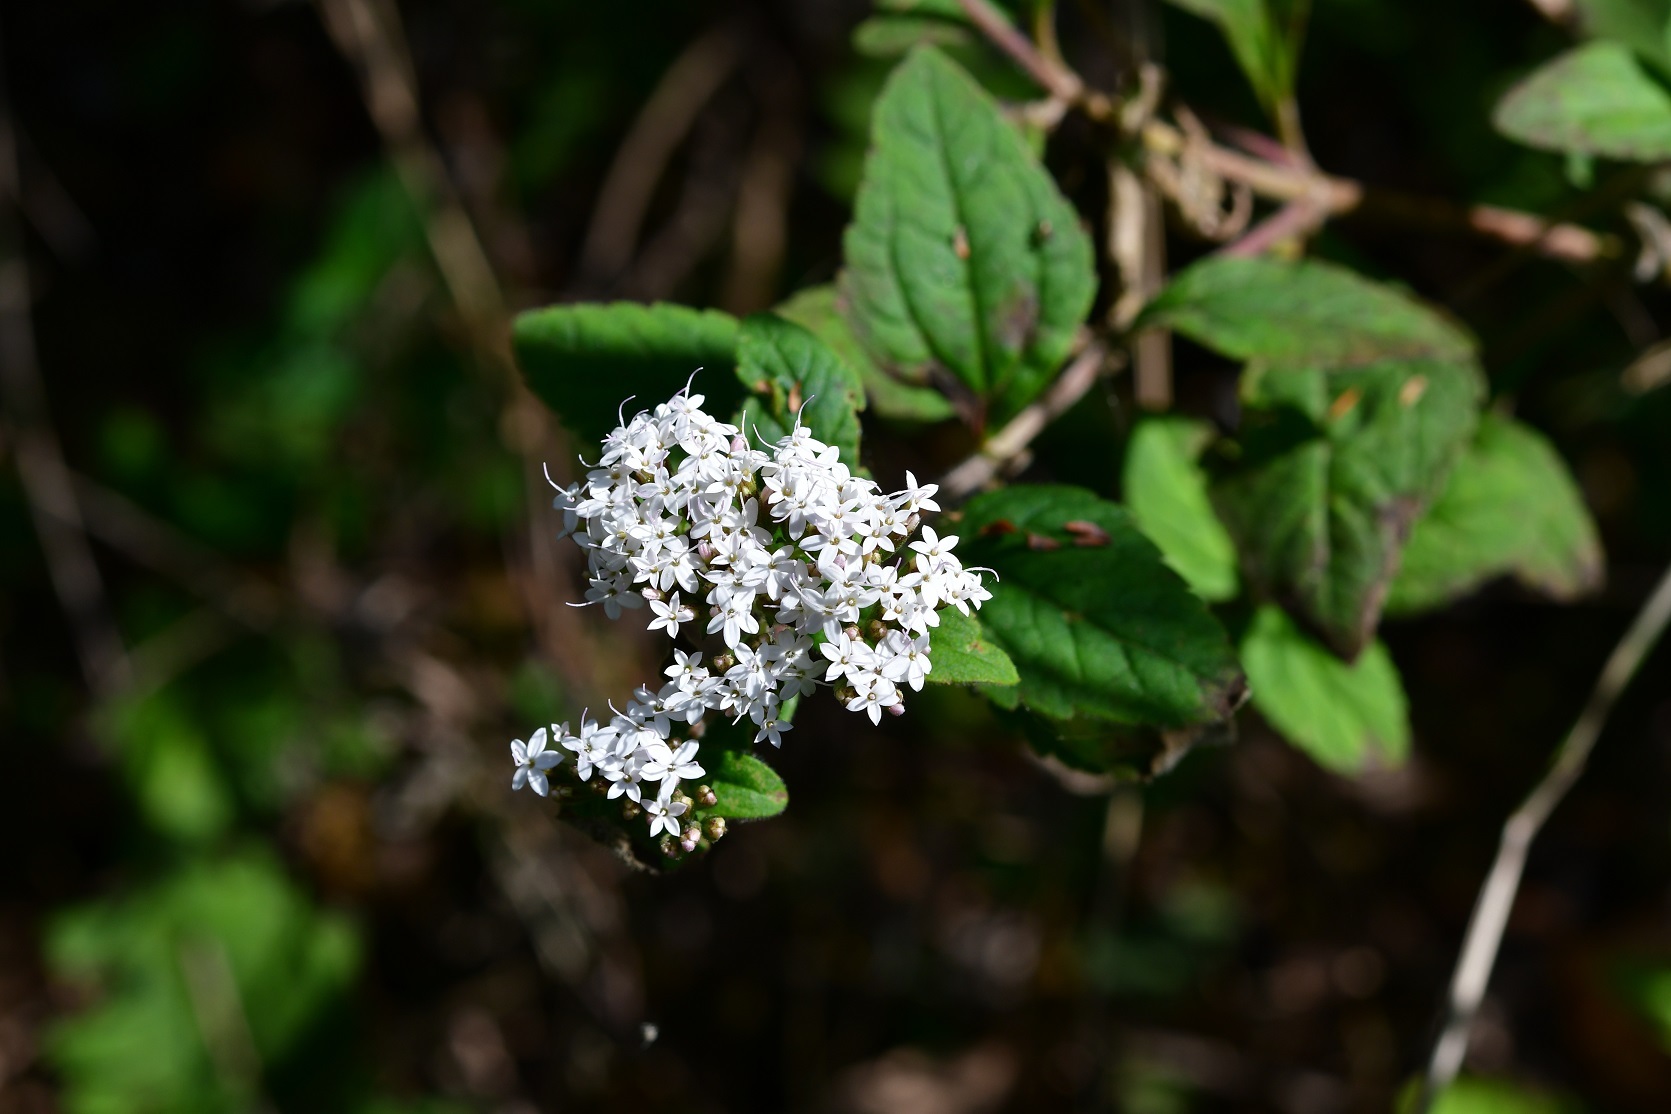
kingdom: Plantae
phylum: Tracheophyta
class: Magnoliopsida
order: Asterales
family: Asteraceae
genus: Stevia
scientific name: Stevia tomentosa
